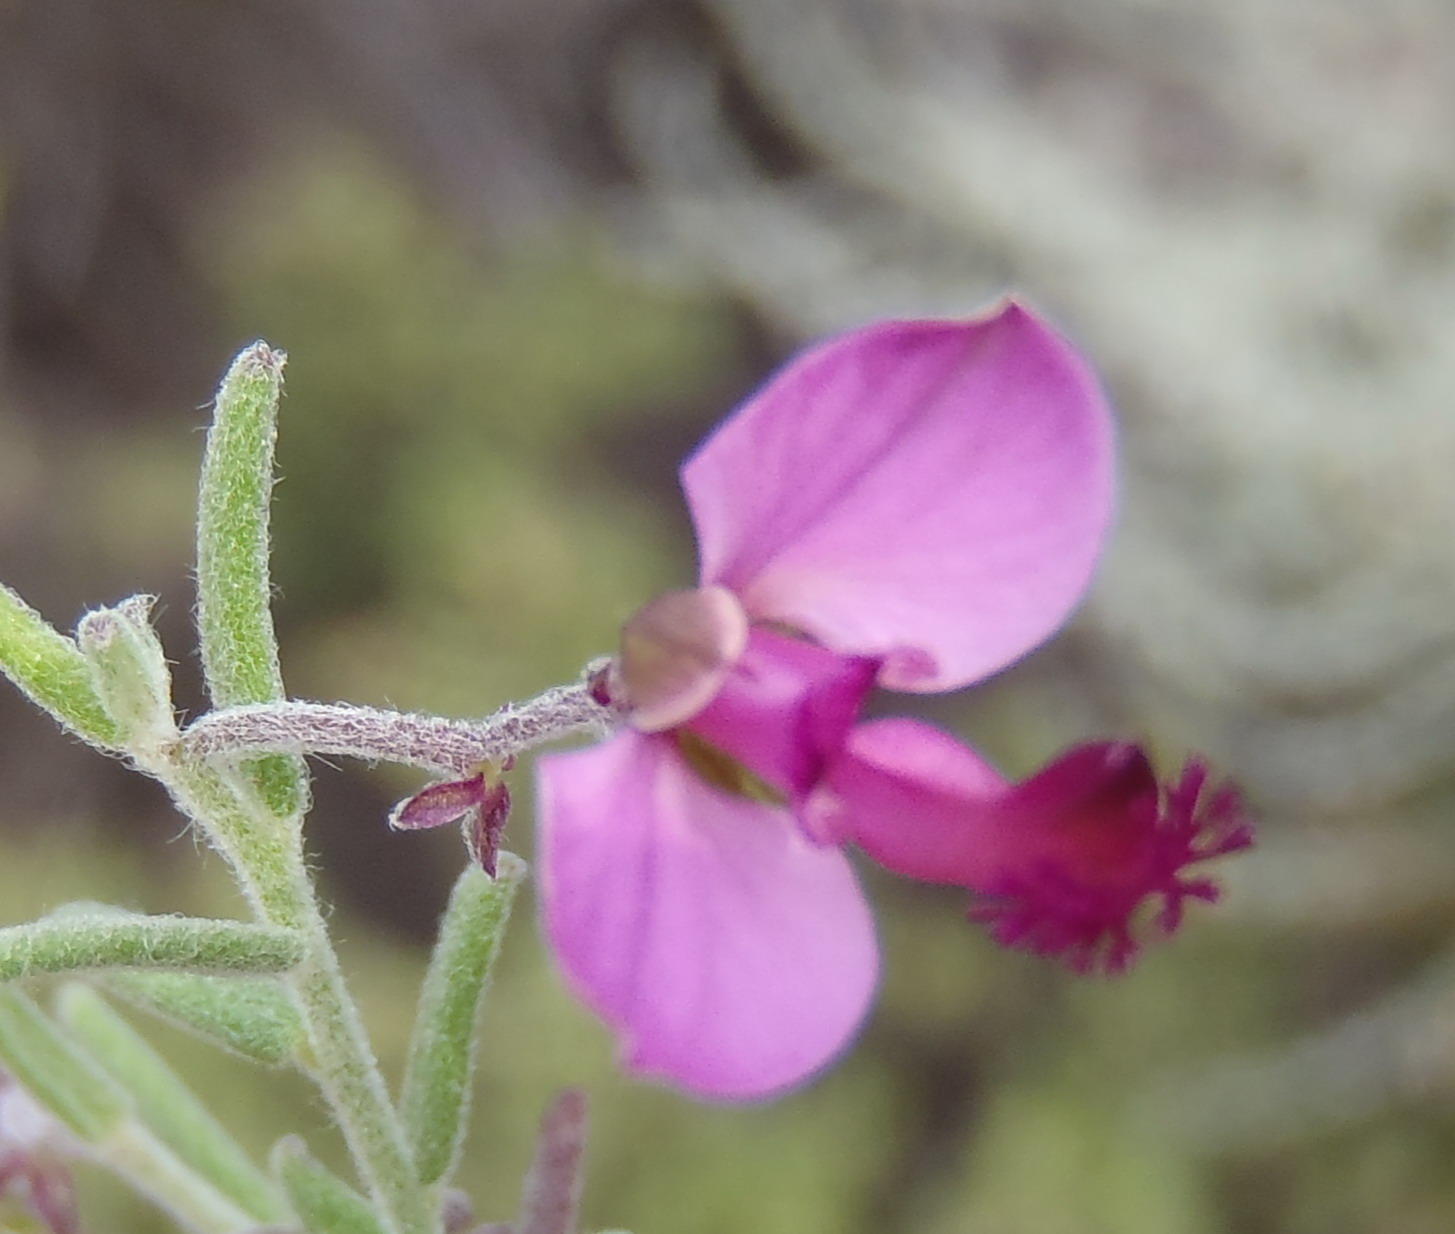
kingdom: Plantae
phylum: Tracheophyta
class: Magnoliopsida
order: Fabales
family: Polygalaceae
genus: Polygala
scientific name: Polygala scabra
